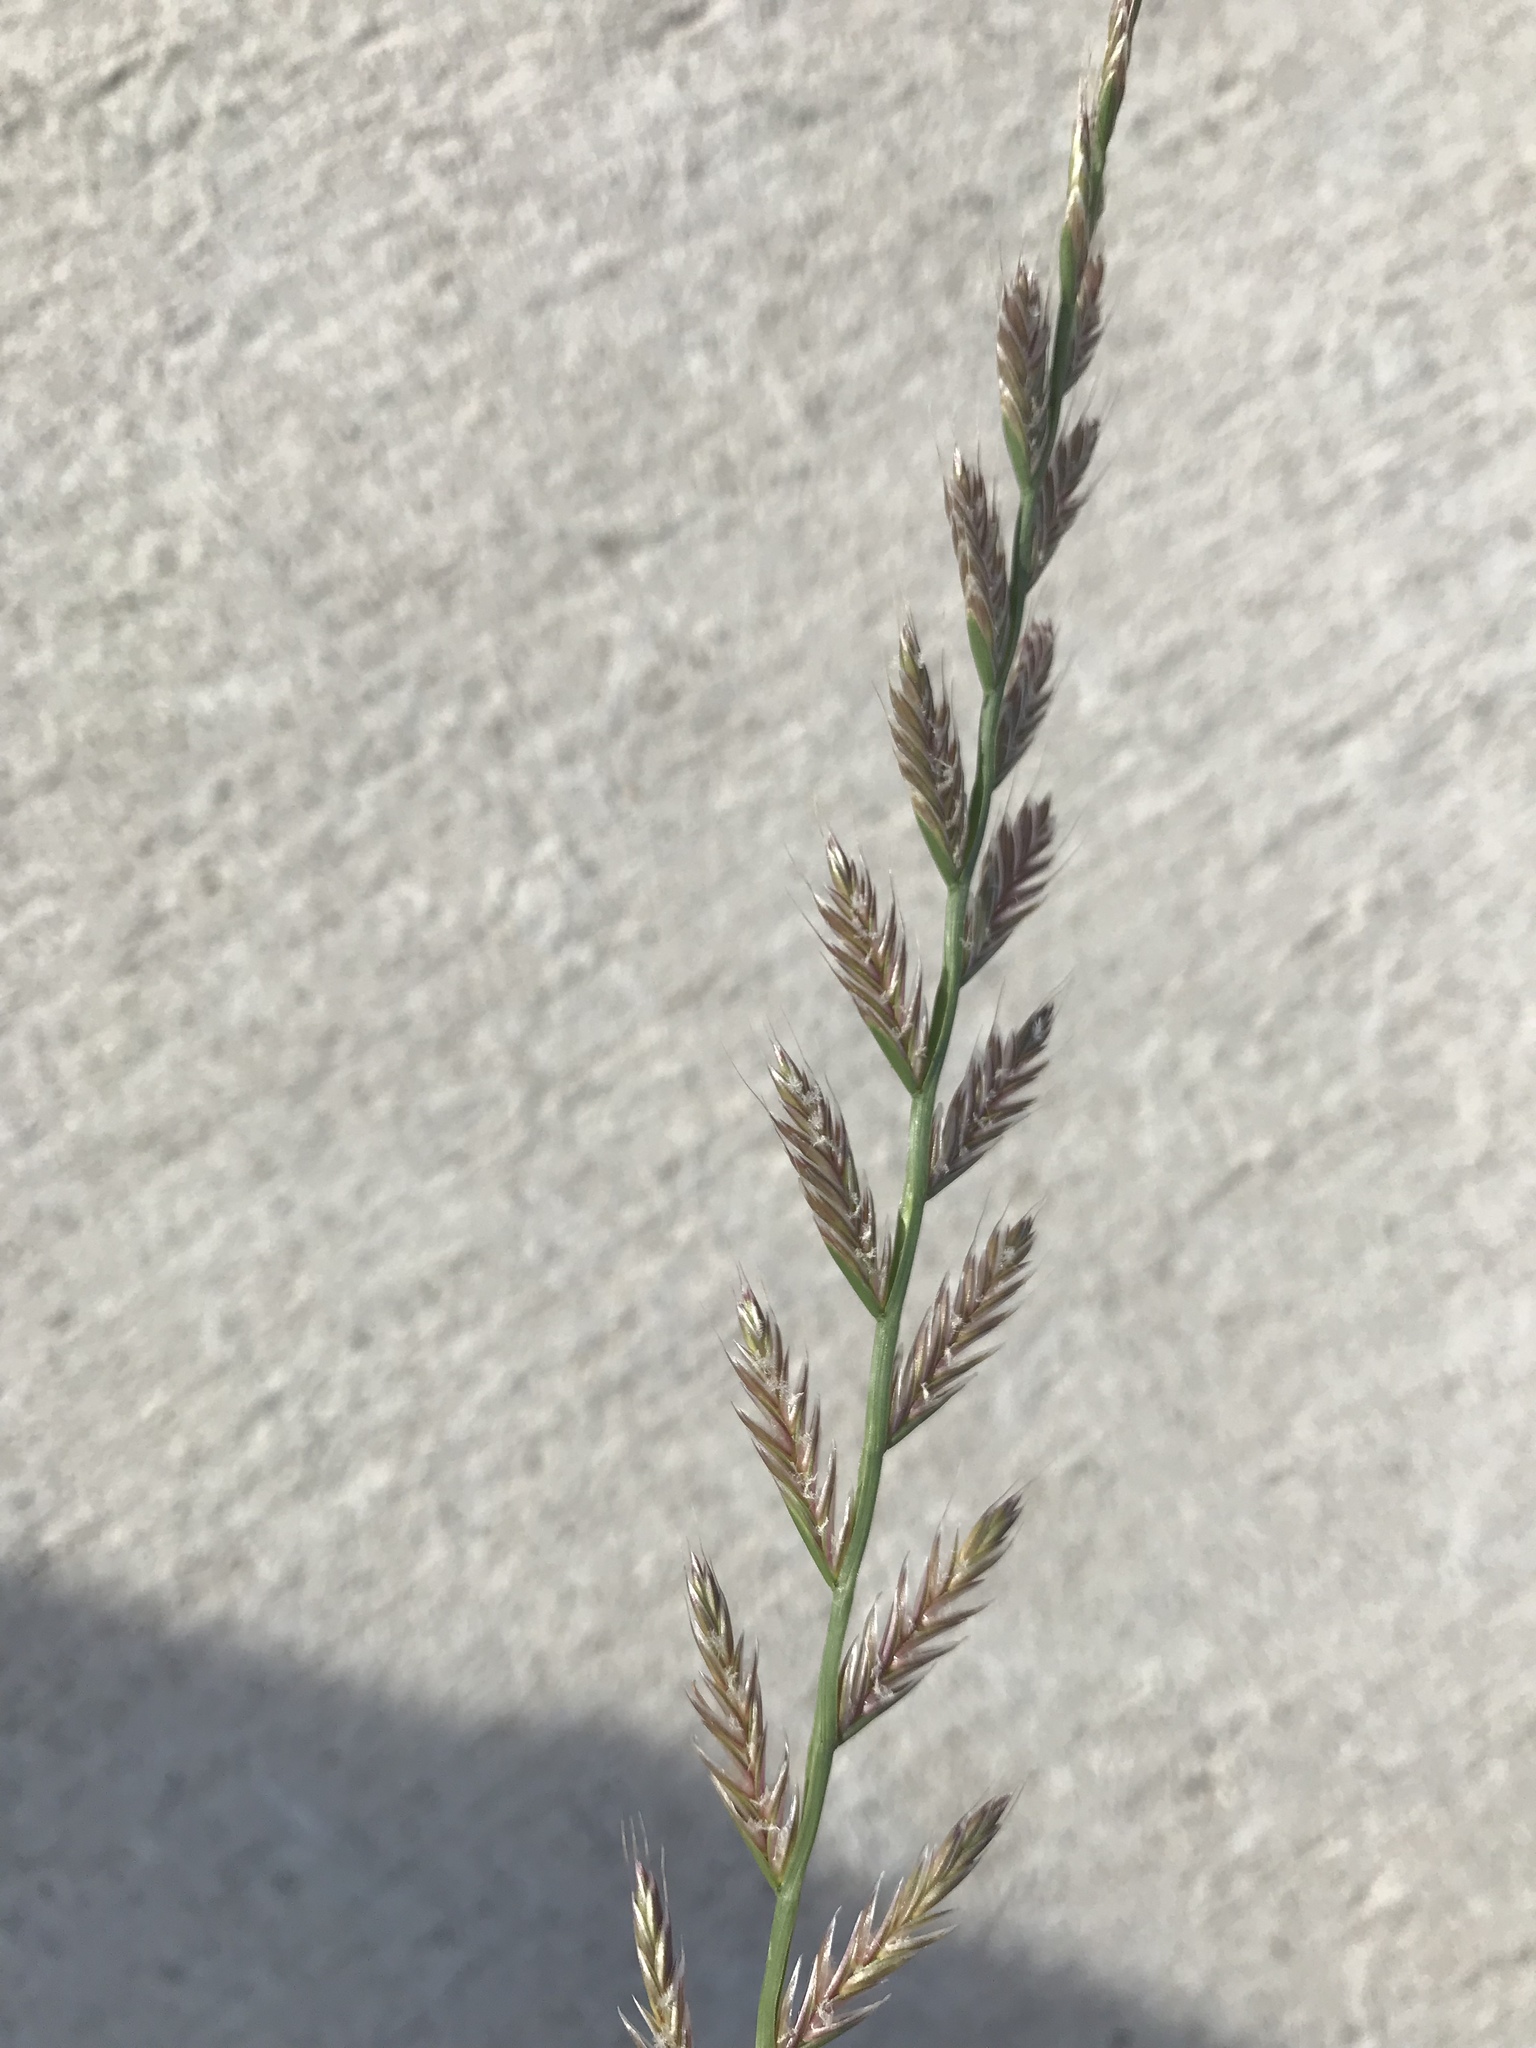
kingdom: Plantae
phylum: Tracheophyta
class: Liliopsida
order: Poales
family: Poaceae
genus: Lolium
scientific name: Lolium perenne
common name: Perennial ryegrass
